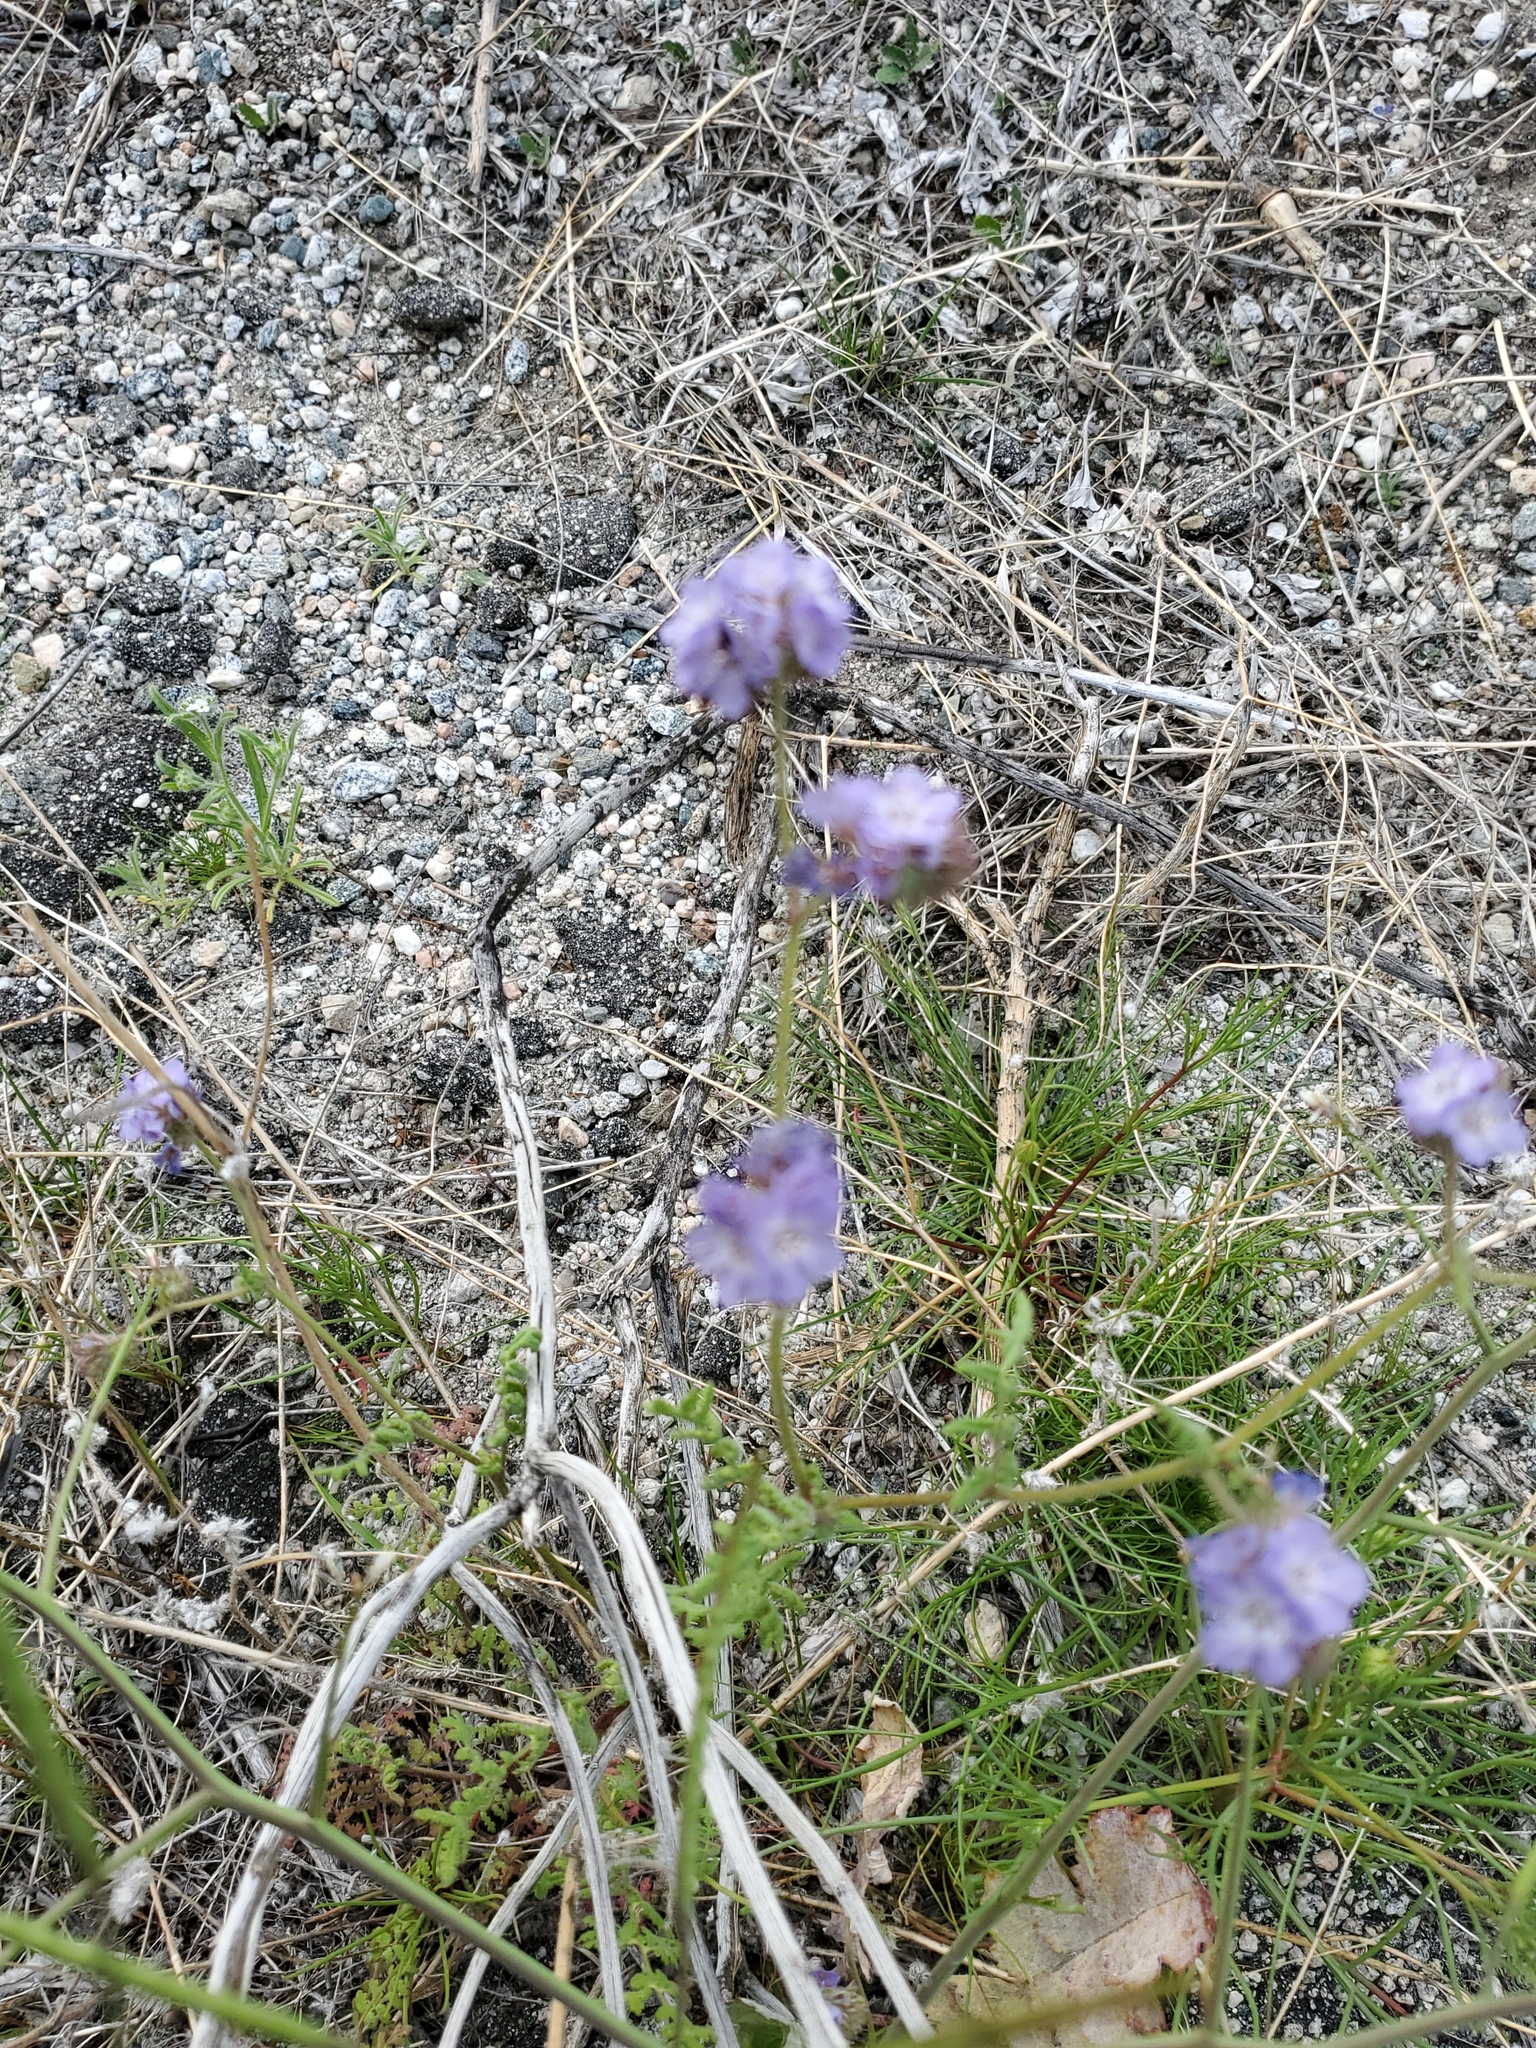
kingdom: Plantae
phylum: Tracheophyta
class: Magnoliopsida
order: Boraginales
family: Hydrophyllaceae
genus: Phacelia
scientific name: Phacelia distans
